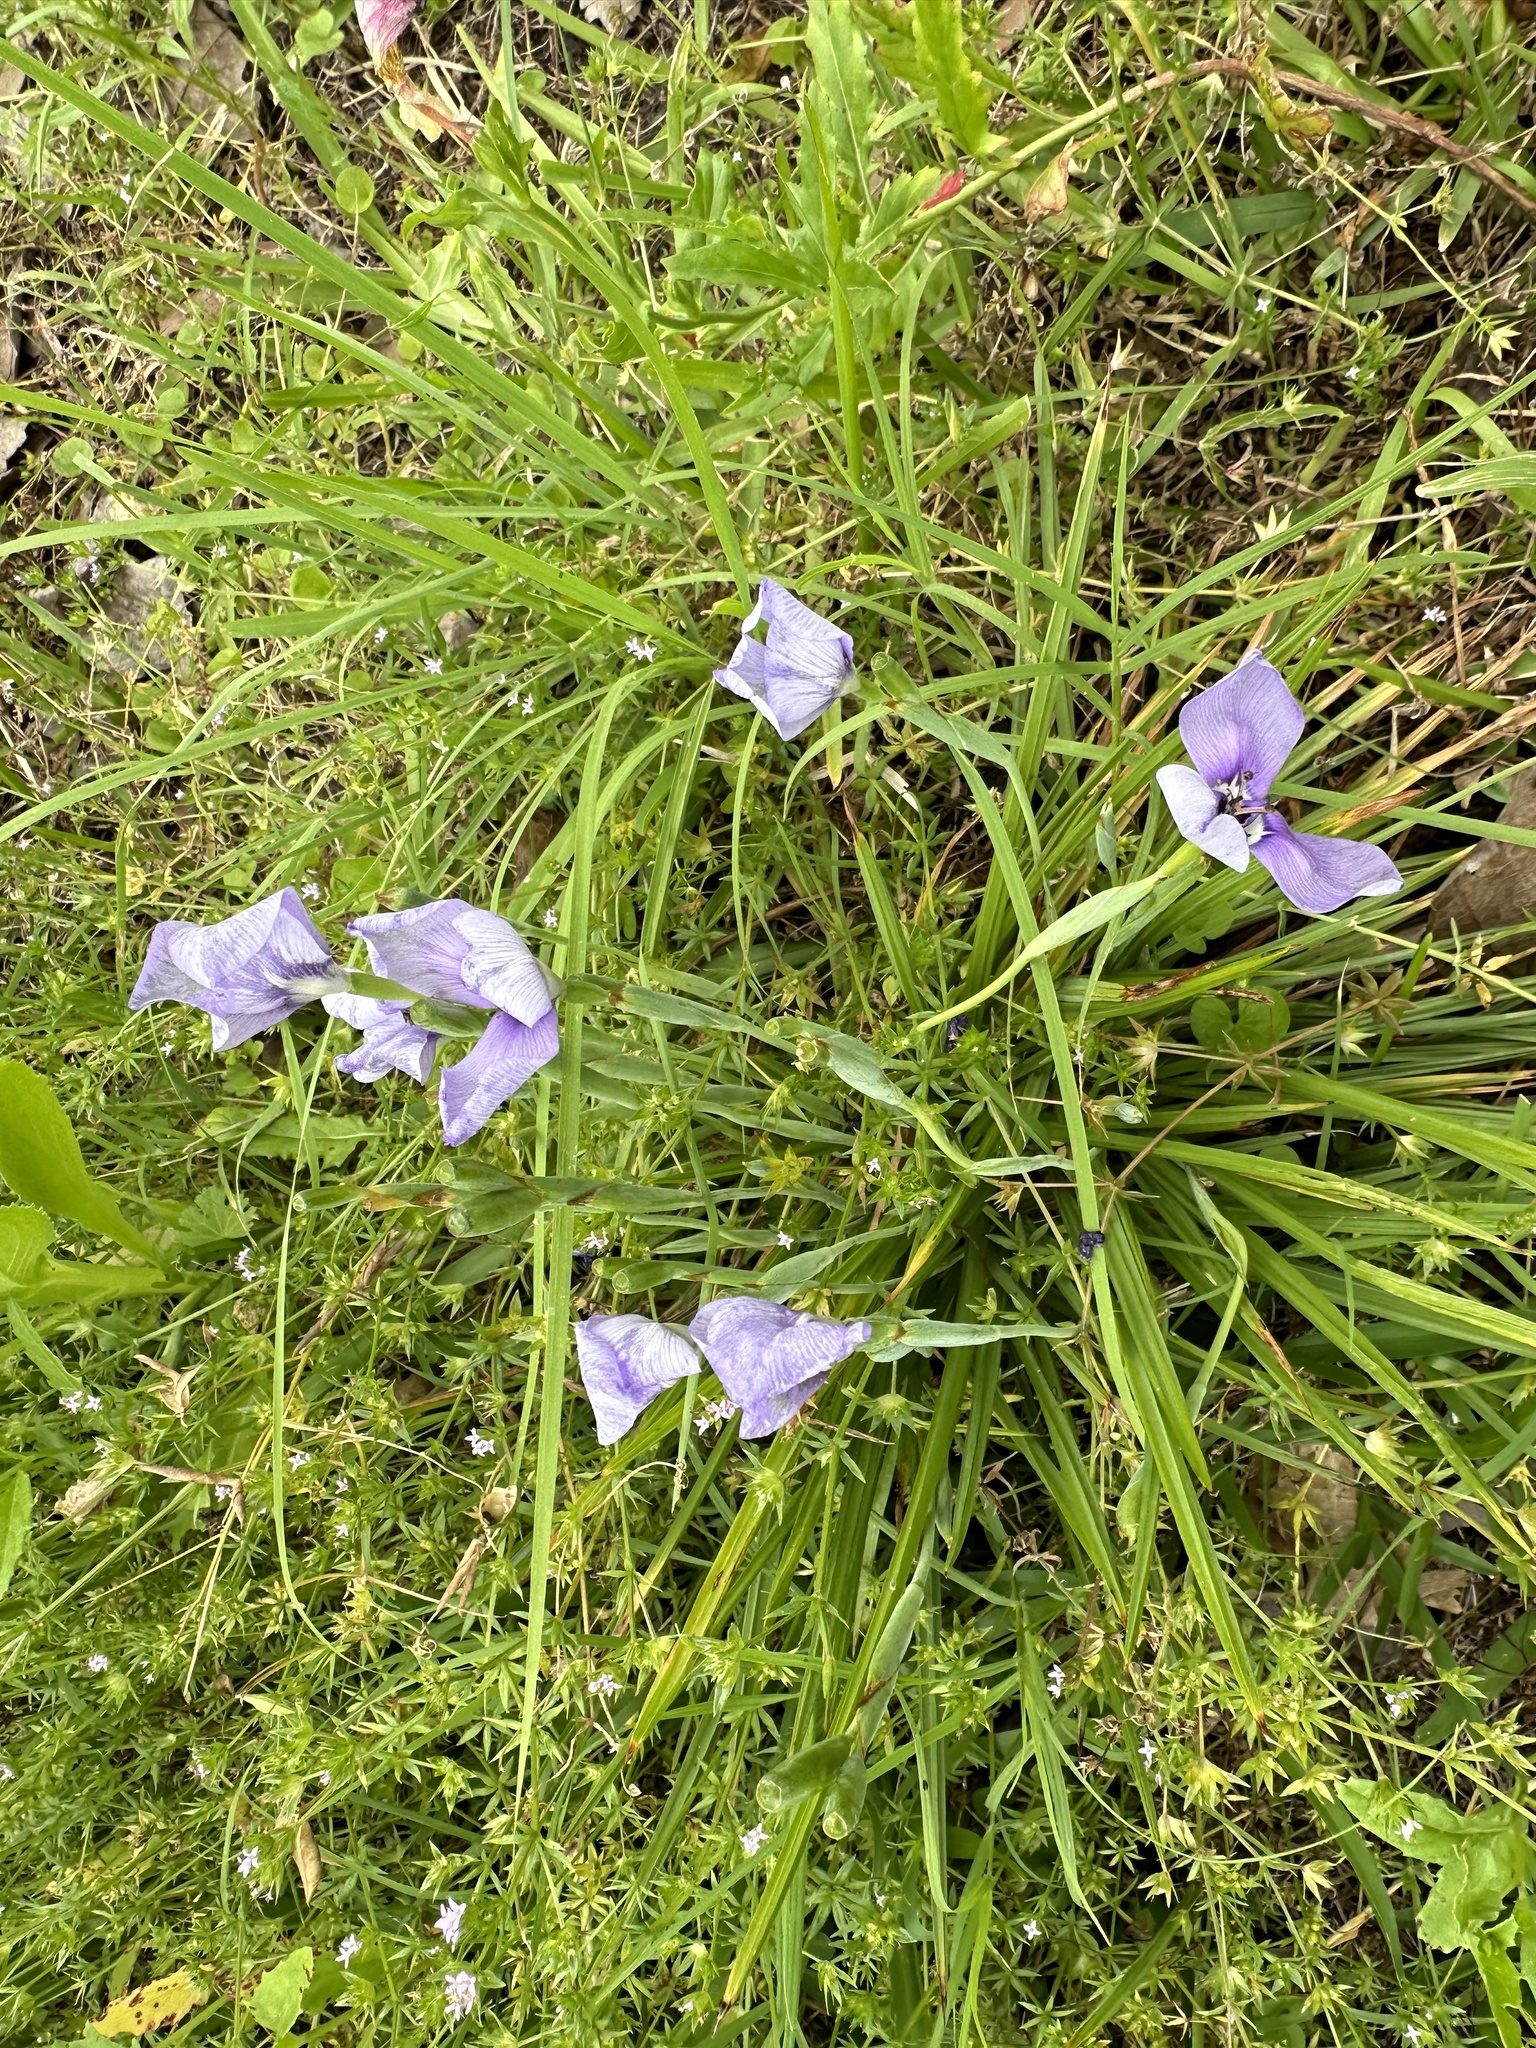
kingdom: Plantae
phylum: Tracheophyta
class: Liliopsida
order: Asparagales
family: Iridaceae
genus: Herbertia
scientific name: Herbertia lahue
